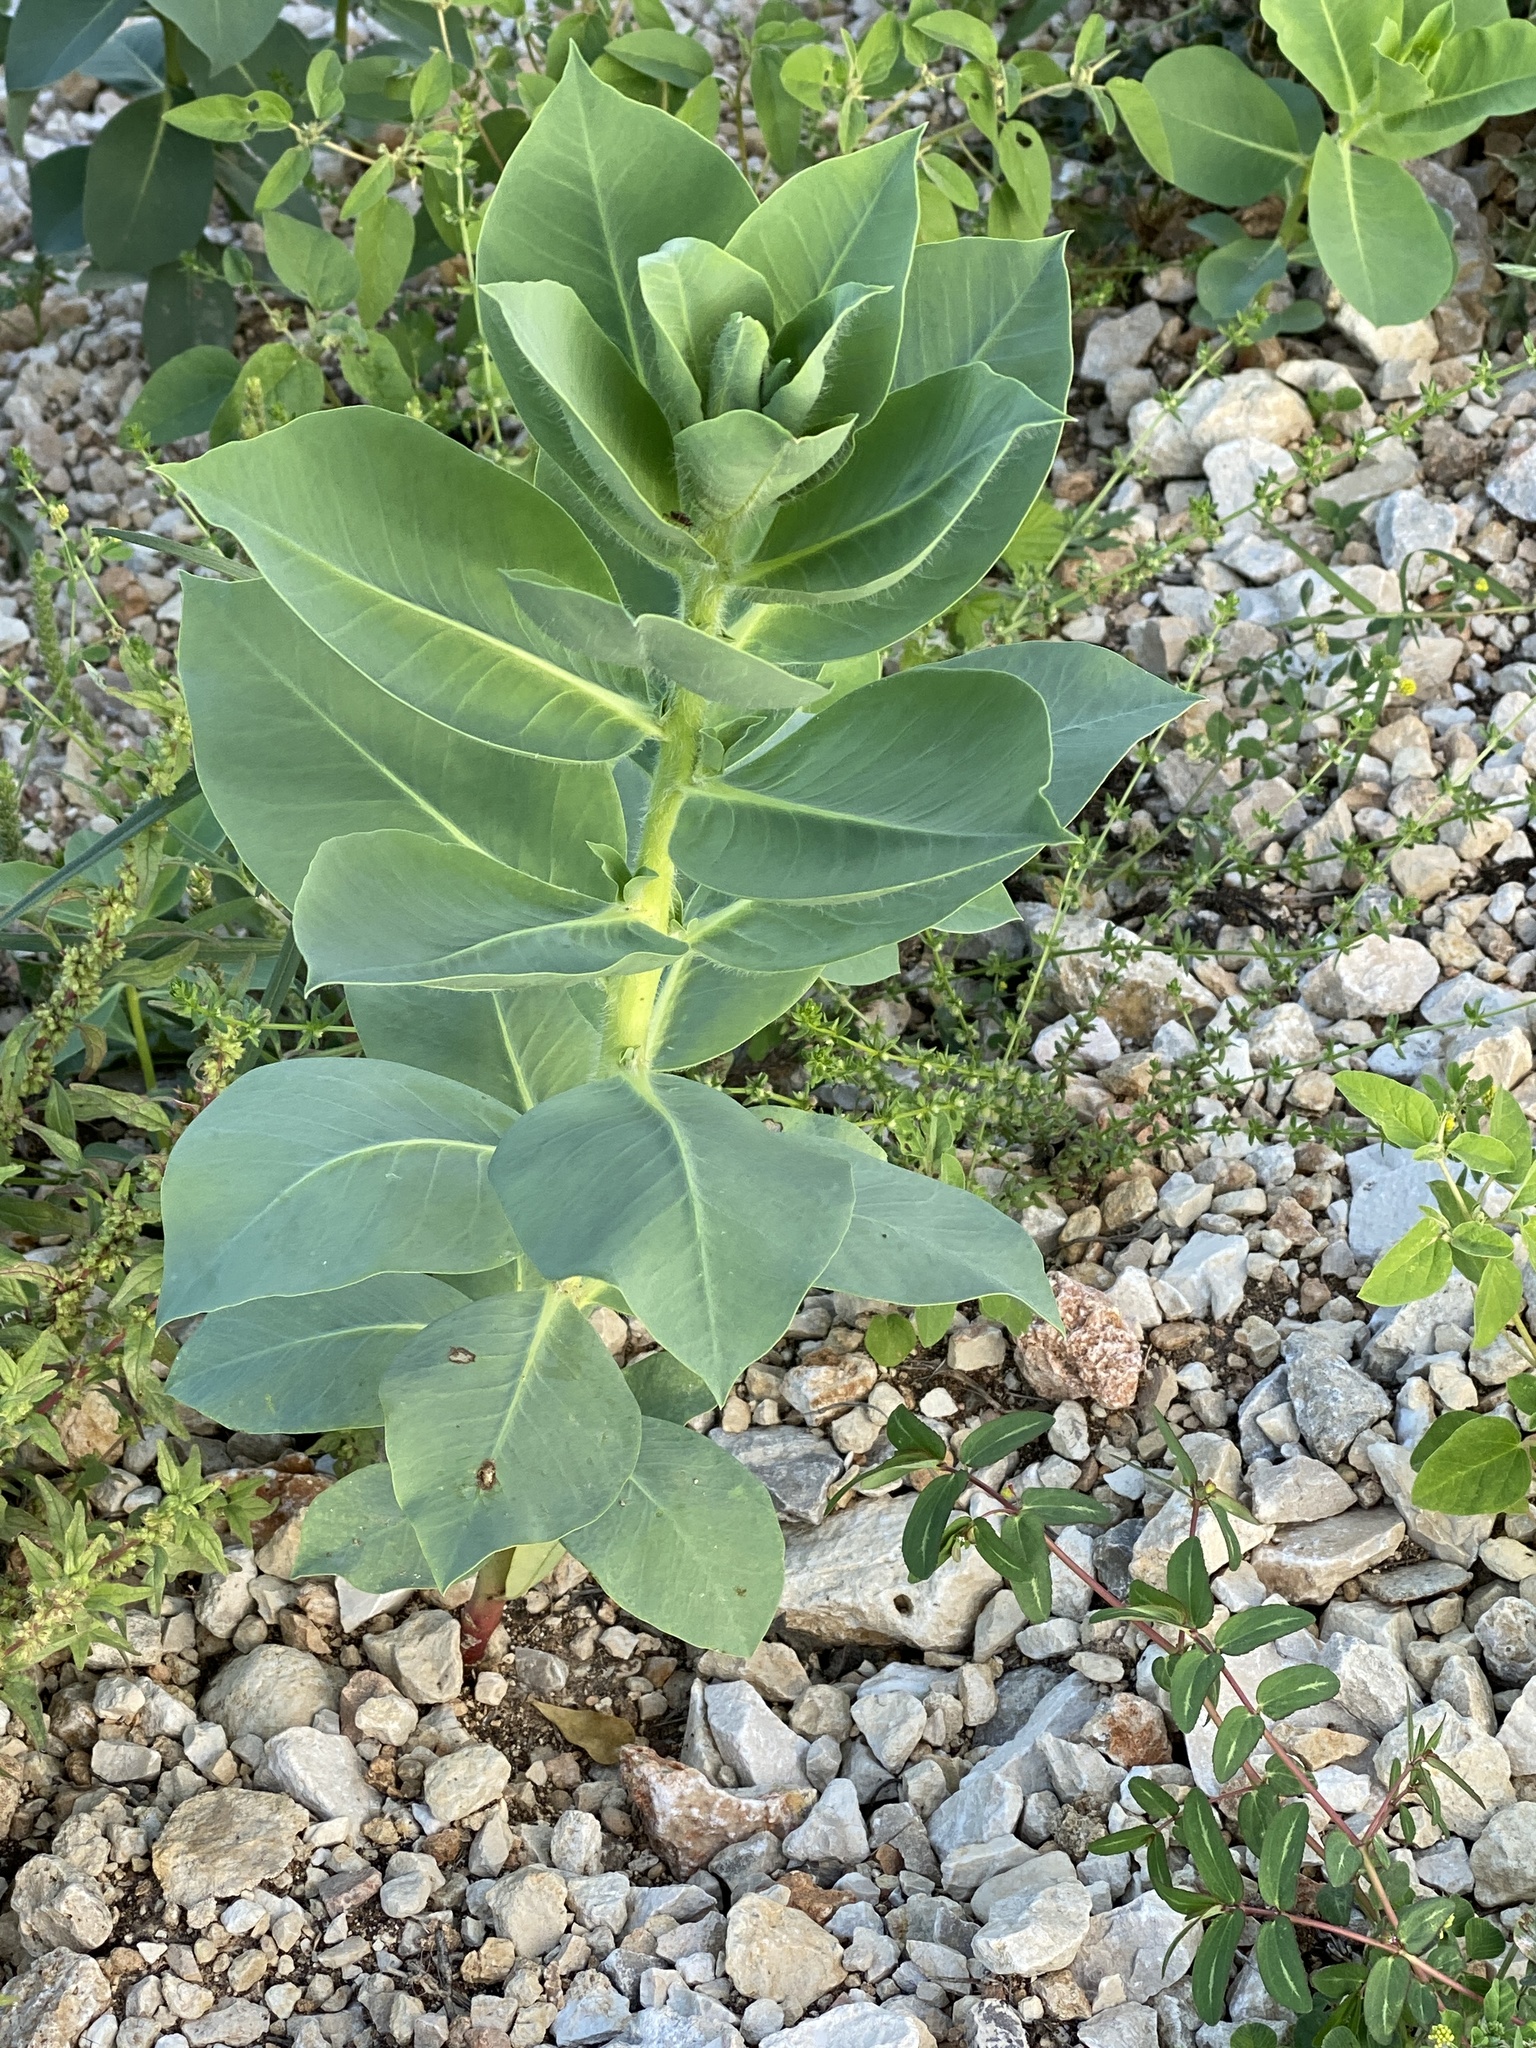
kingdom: Plantae
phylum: Tracheophyta
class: Magnoliopsida
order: Malpighiales
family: Euphorbiaceae
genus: Euphorbia
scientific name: Euphorbia marginata
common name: Ghostweed
